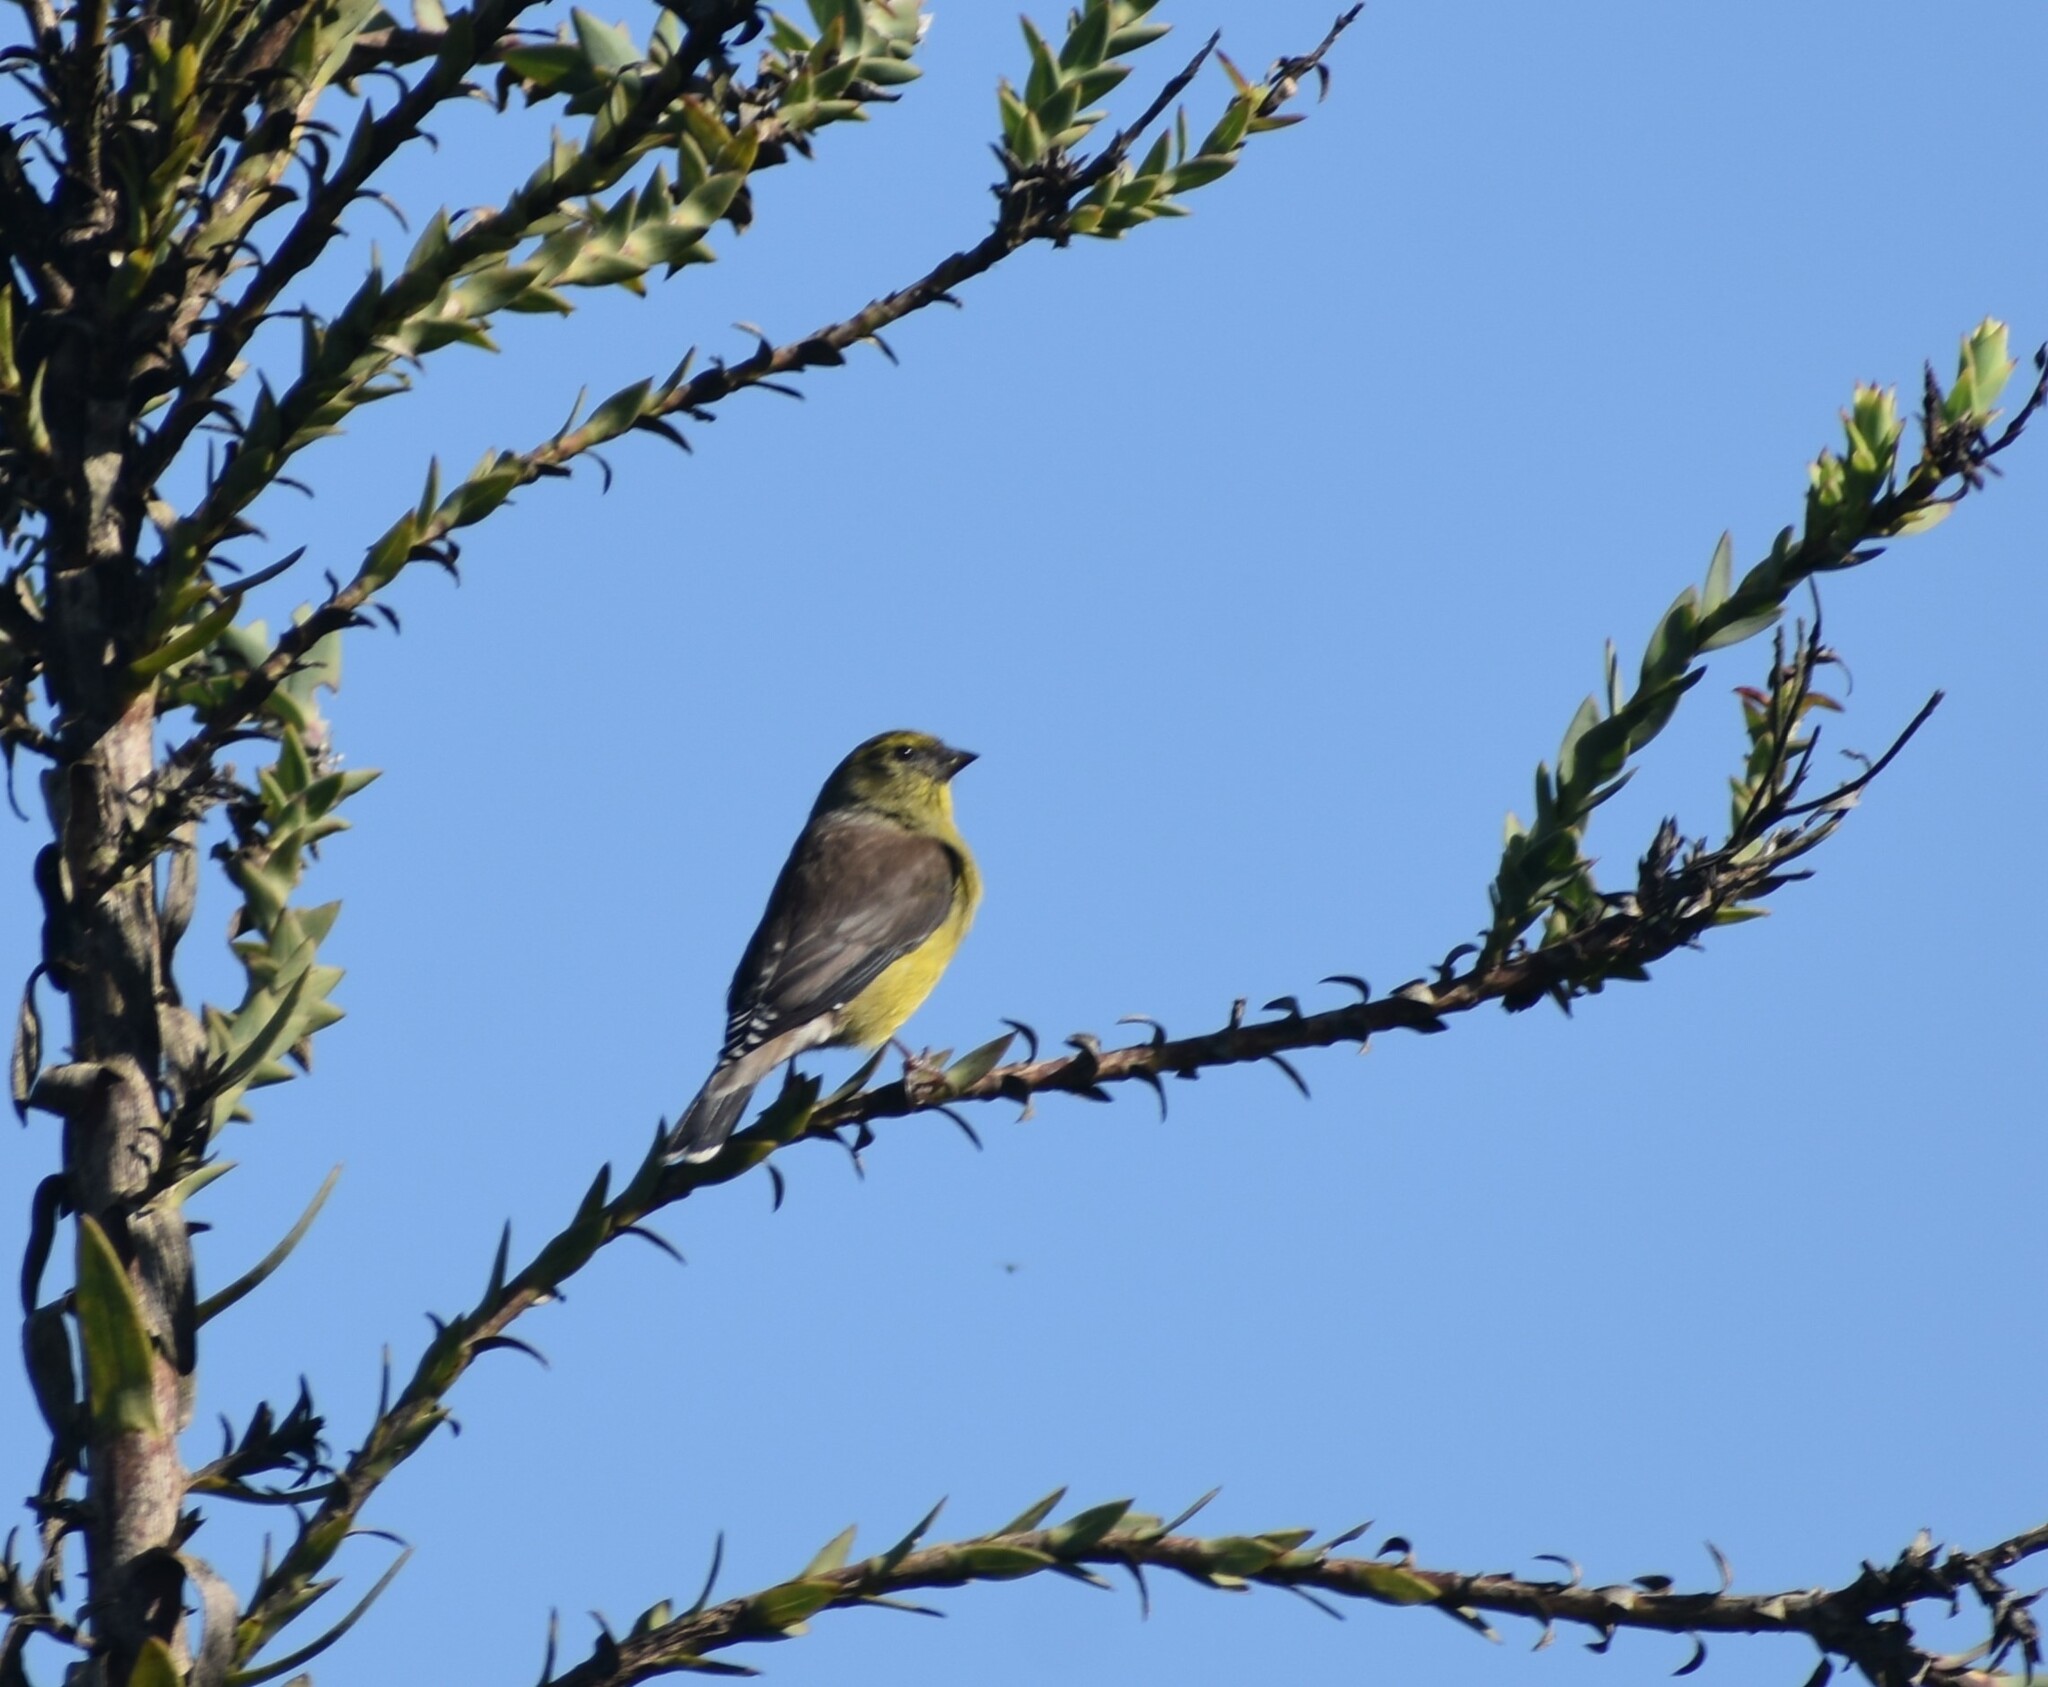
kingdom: Animalia
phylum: Chordata
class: Aves
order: Passeriformes
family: Fringillidae
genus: Crithagra
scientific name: Crithagra totta
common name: Cape siskin
